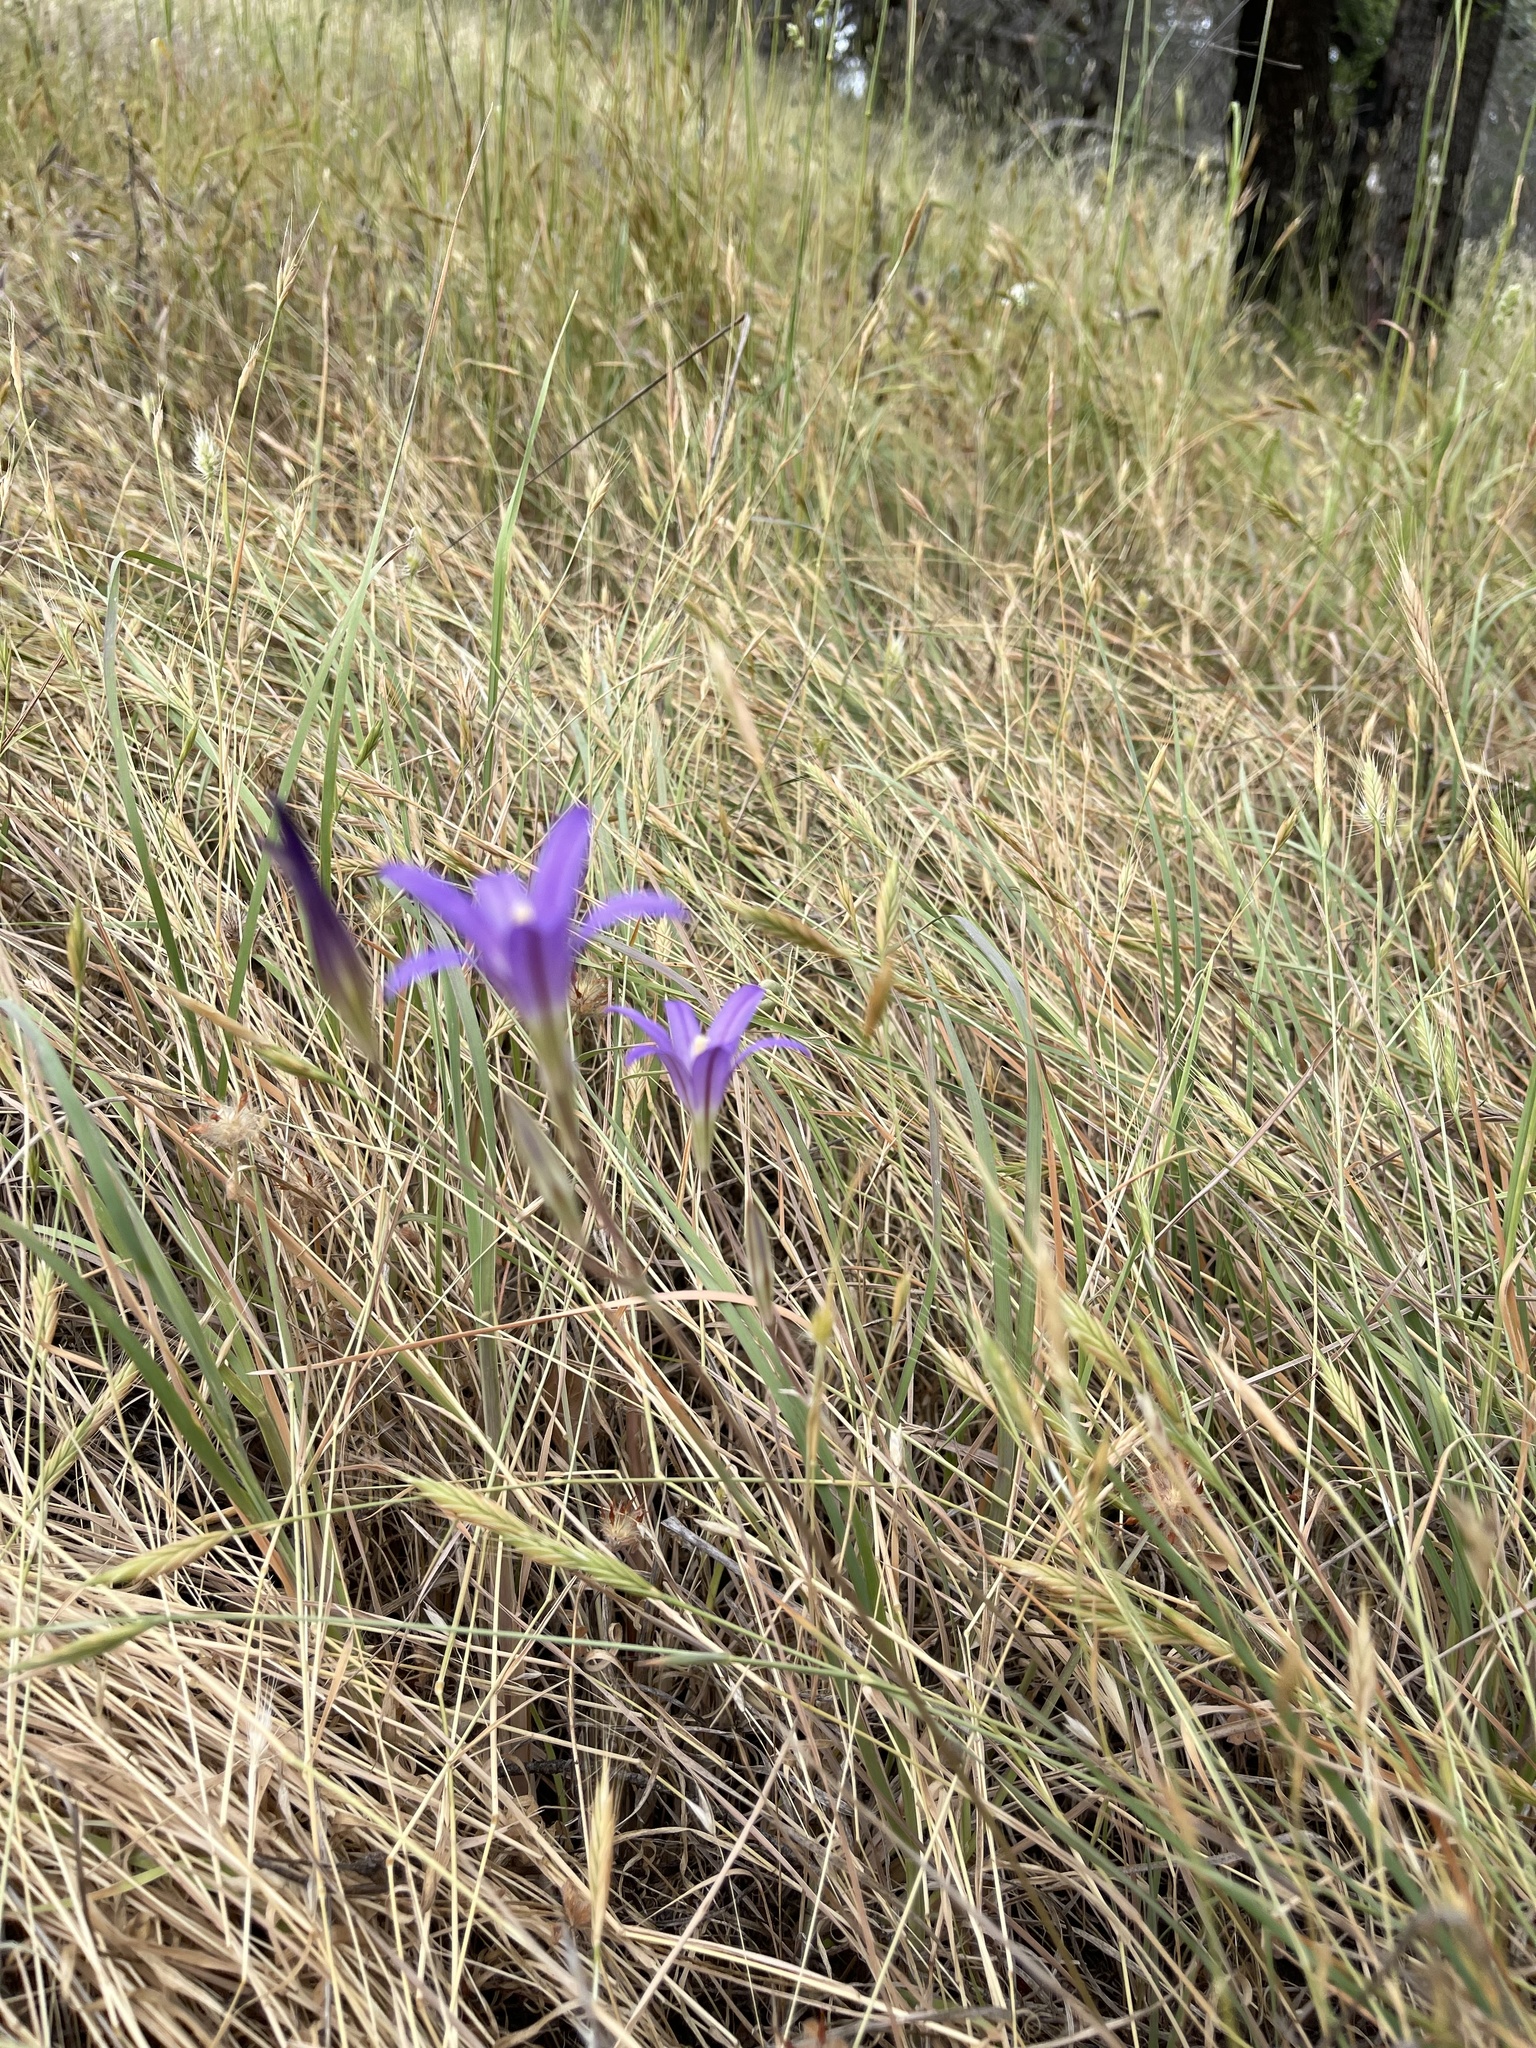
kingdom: Plantae
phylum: Tracheophyta
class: Liliopsida
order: Asparagales
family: Asparagaceae
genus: Brodiaea
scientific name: Brodiaea elegans
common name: Elegant cluster-lily
